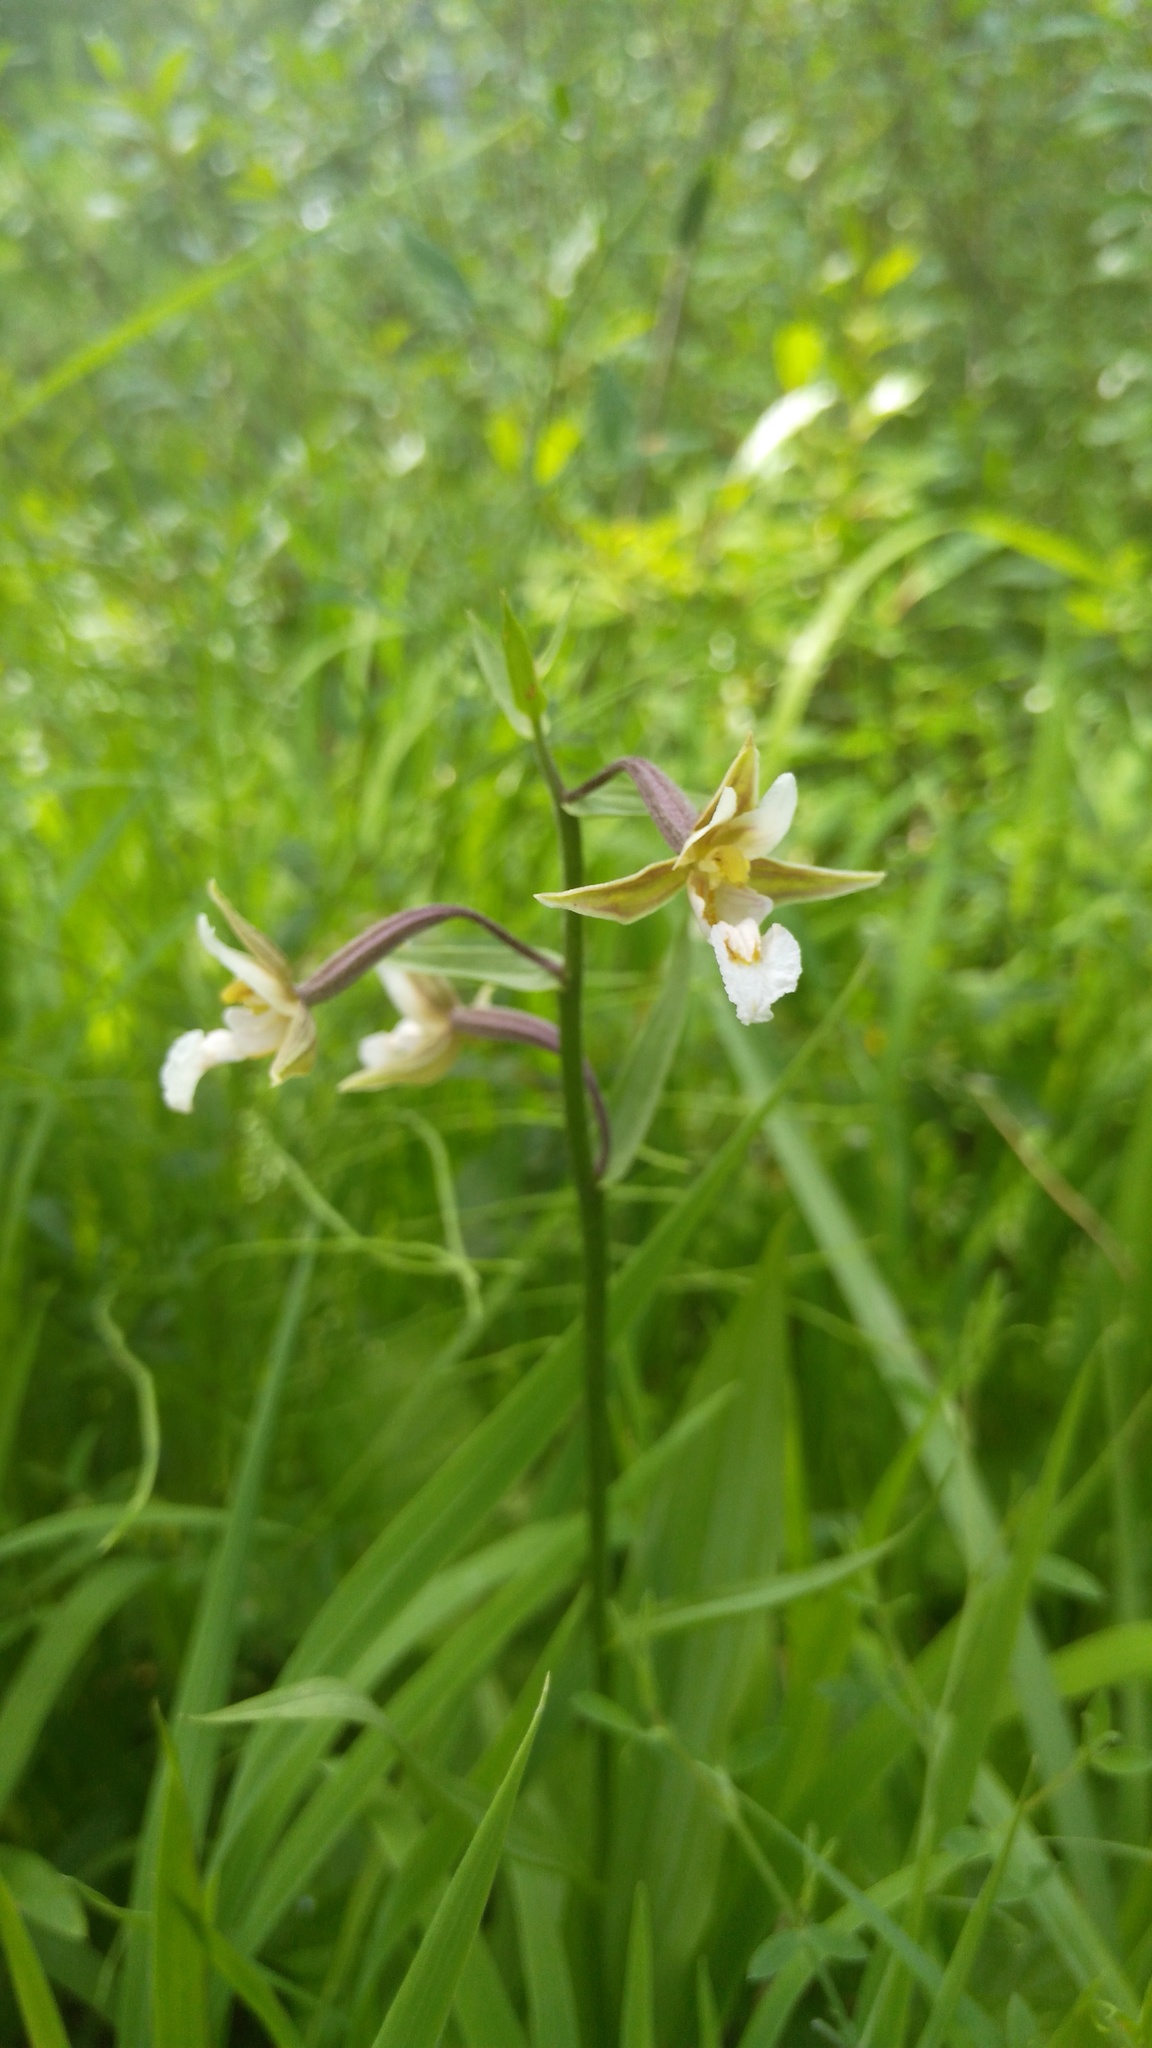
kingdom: Plantae
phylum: Tracheophyta
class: Liliopsida
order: Asparagales
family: Orchidaceae
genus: Epipactis
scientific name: Epipactis palustris
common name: Marsh helleborine
